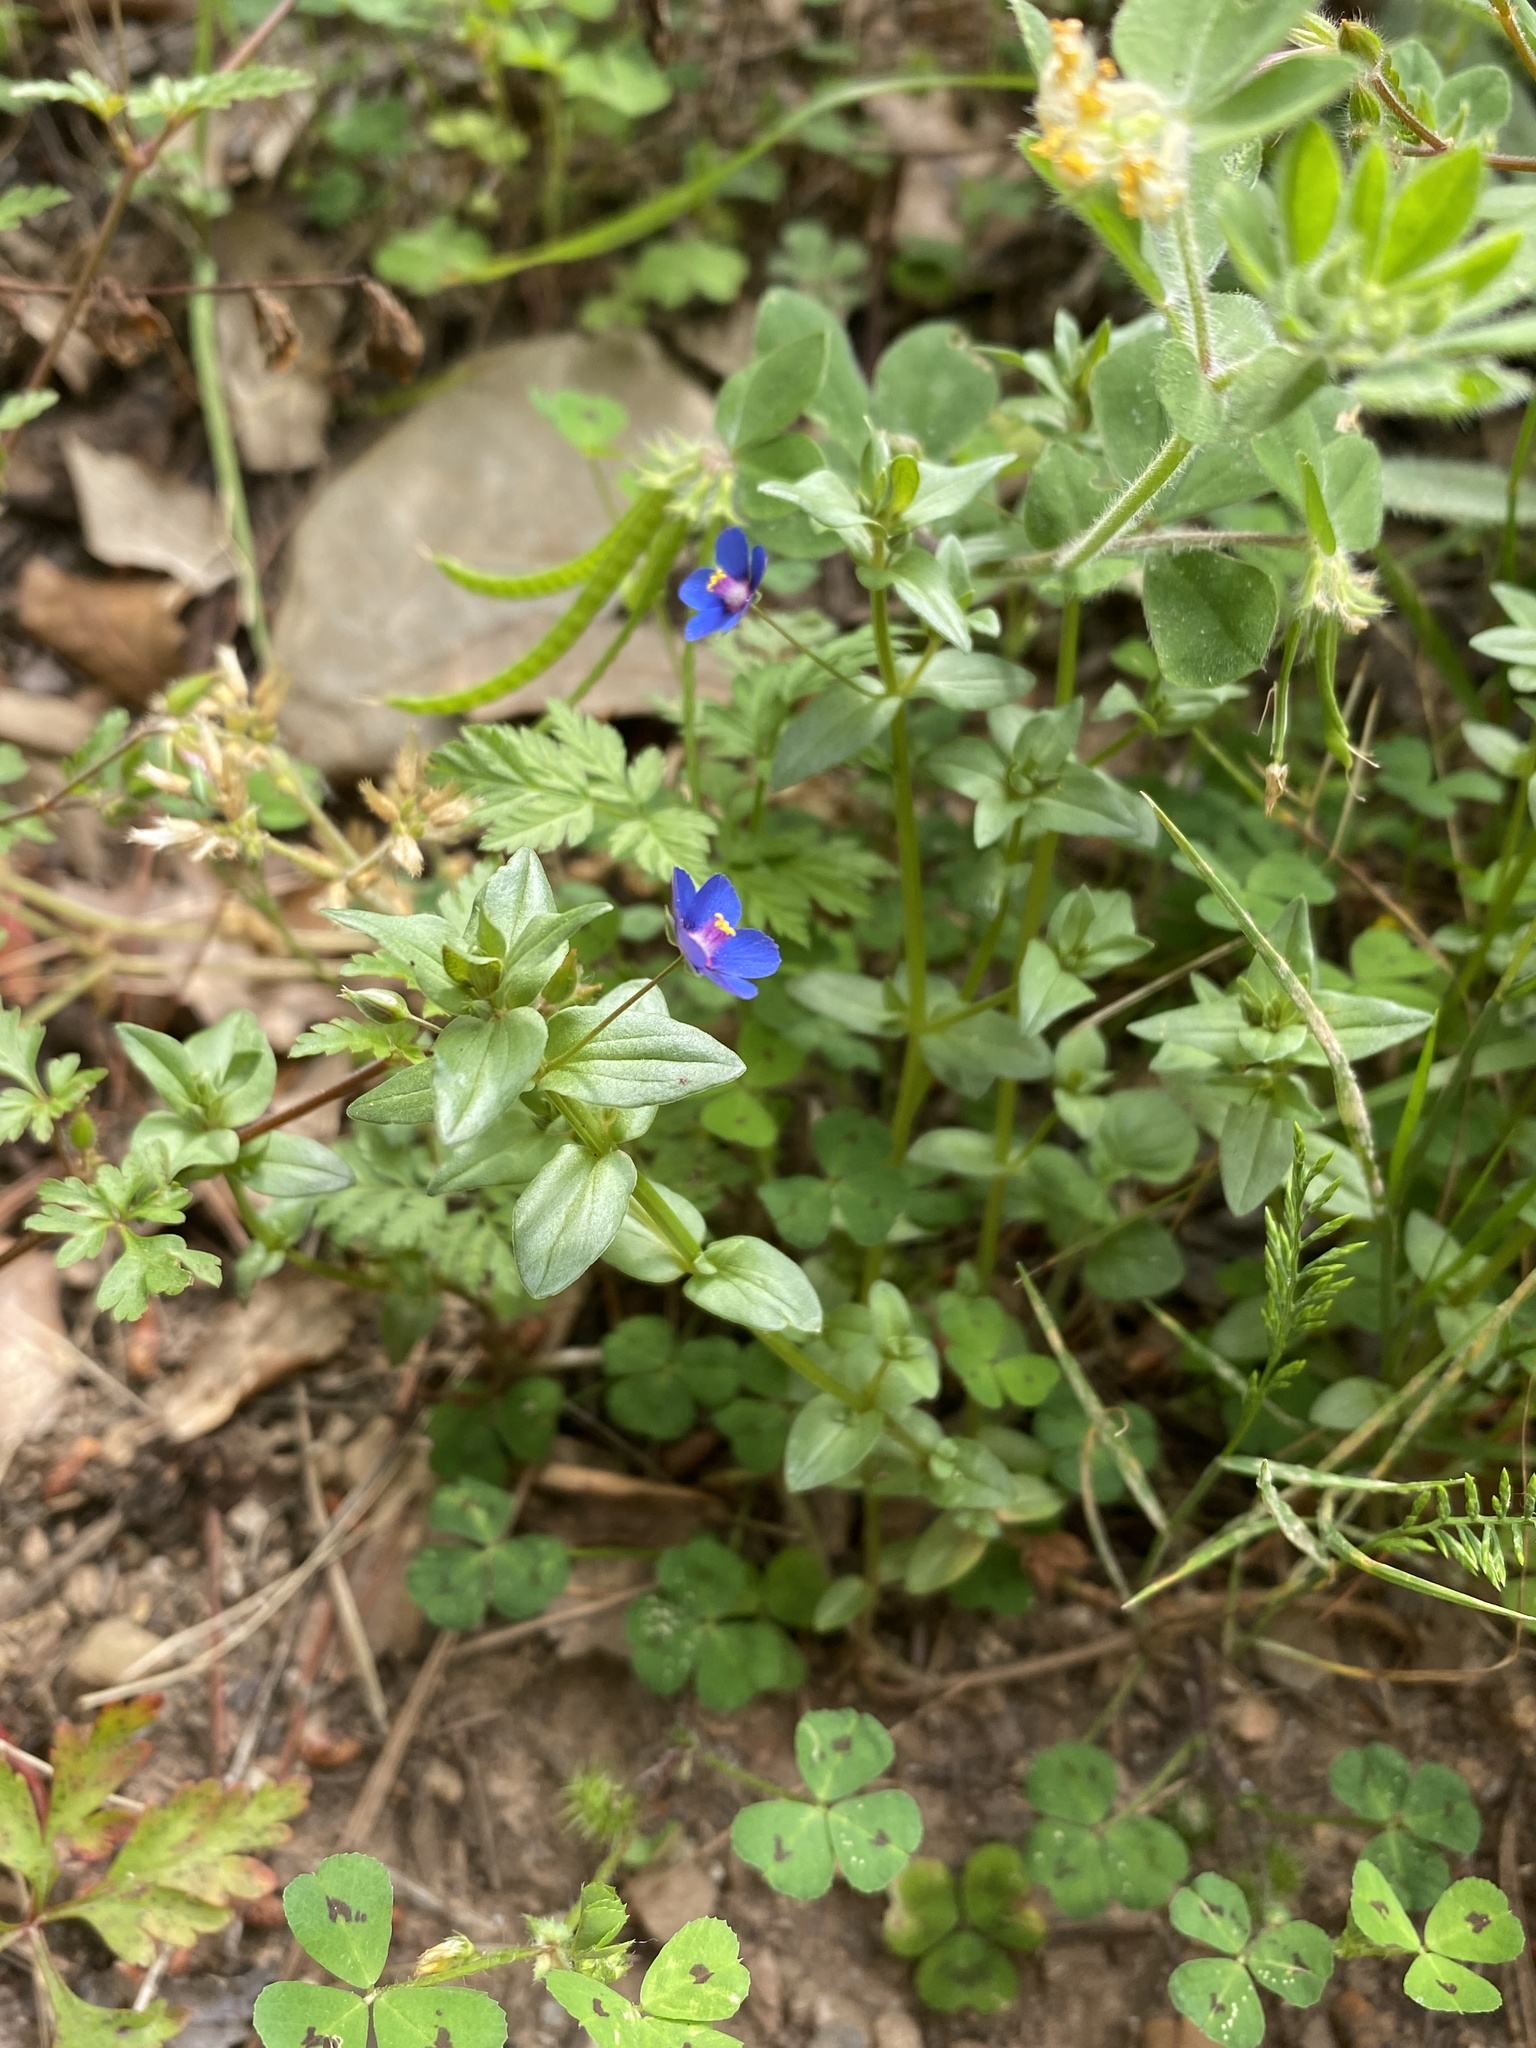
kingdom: Plantae
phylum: Tracheophyta
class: Magnoliopsida
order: Ericales
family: Primulaceae
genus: Lysimachia
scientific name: Lysimachia loeflingii
